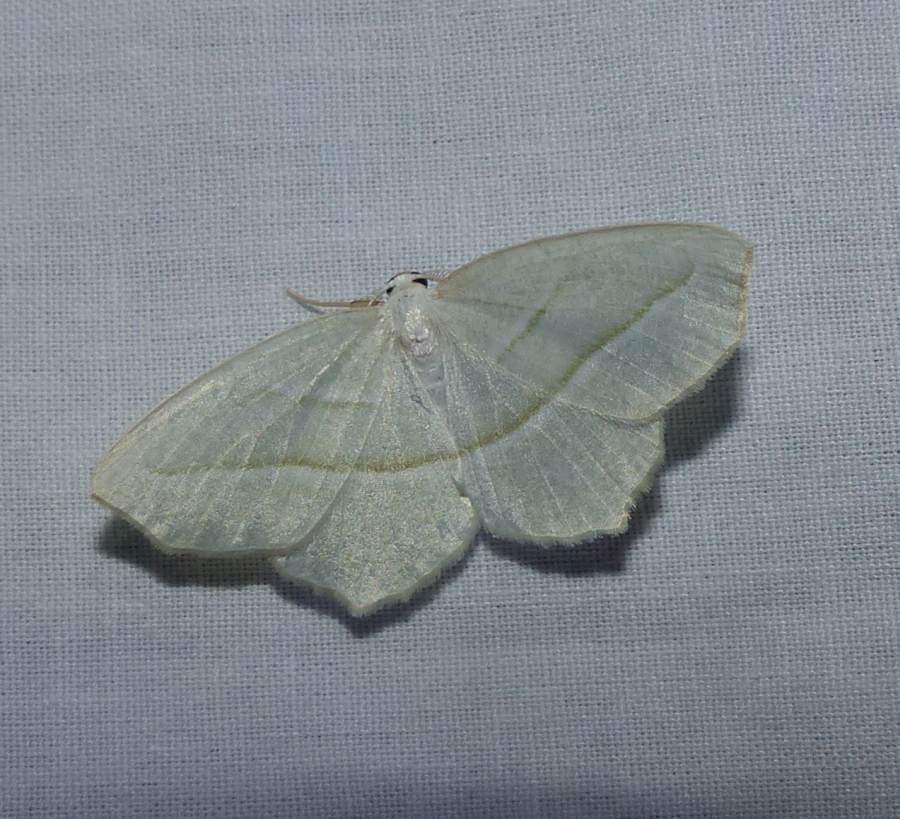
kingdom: Animalia
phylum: Arthropoda
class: Insecta
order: Lepidoptera
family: Geometridae
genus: Campaea
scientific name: Campaea perlata
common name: Fringed looper
